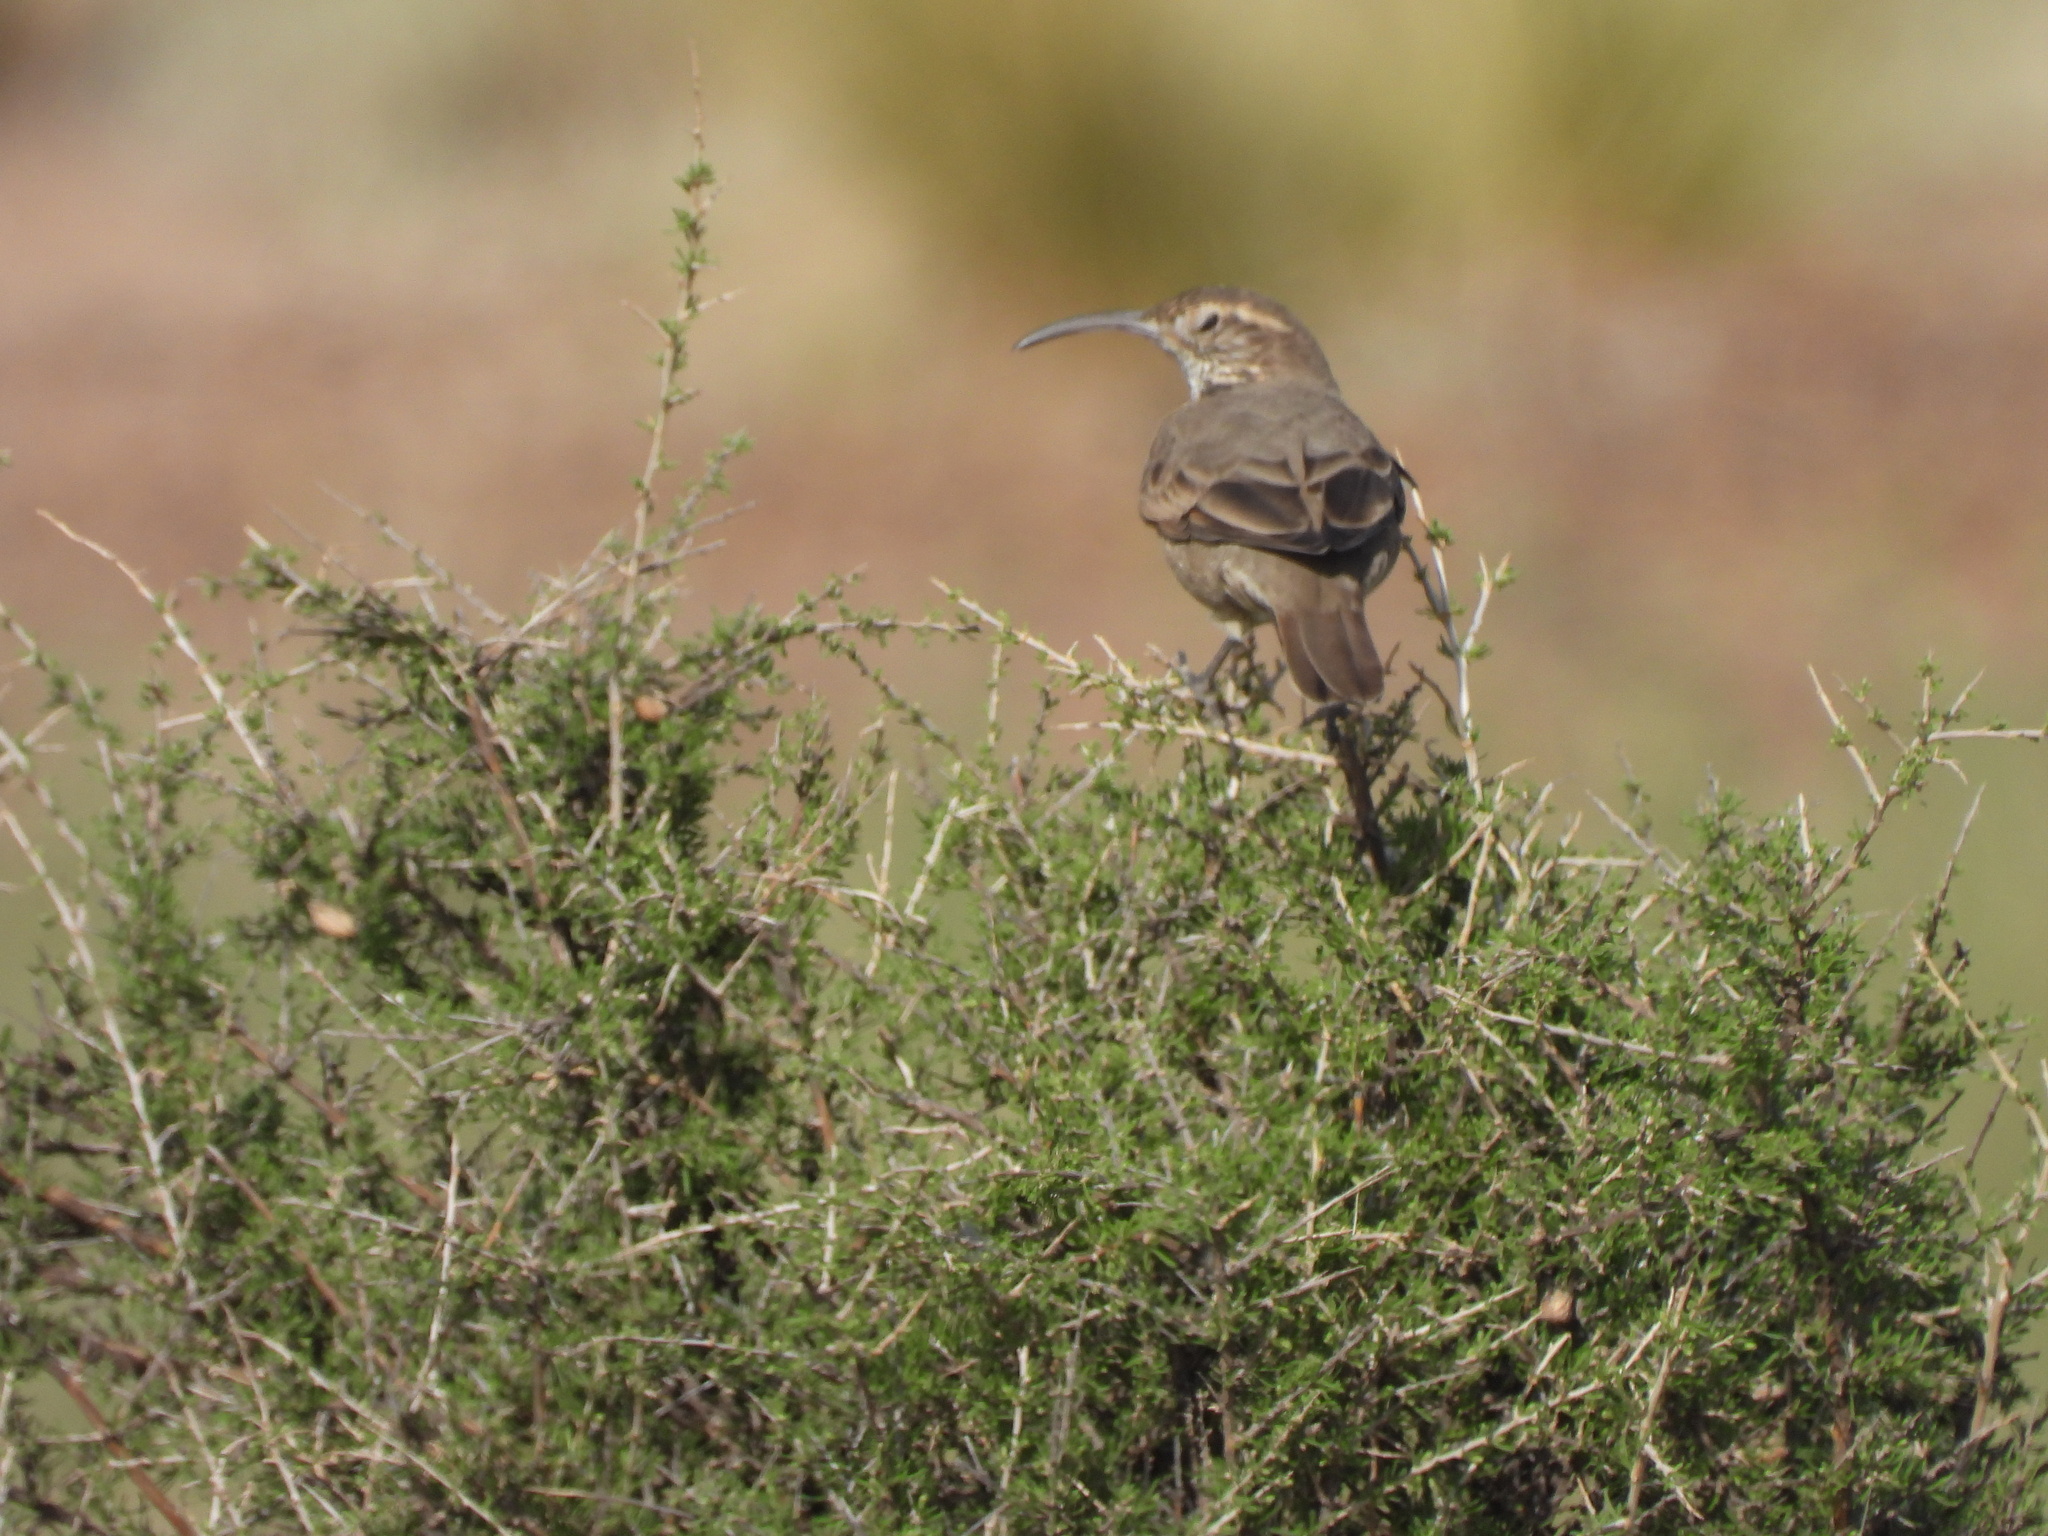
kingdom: Animalia
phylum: Chordata
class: Aves
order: Passeriformes
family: Furnariidae
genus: Upucerthia
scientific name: Upucerthia dumetaria
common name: Scale-throated earthcreeper
